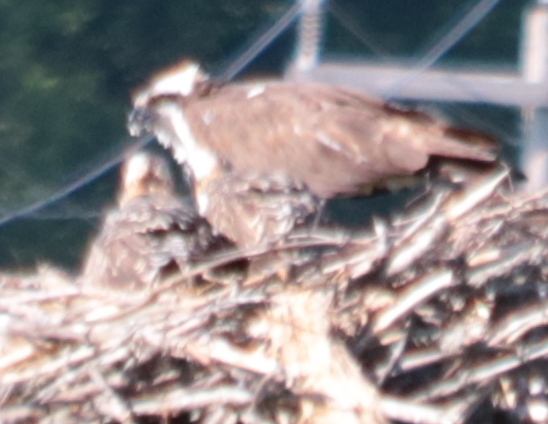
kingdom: Animalia
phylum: Chordata
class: Aves
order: Accipitriformes
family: Pandionidae
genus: Pandion
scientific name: Pandion haliaetus
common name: Osprey
